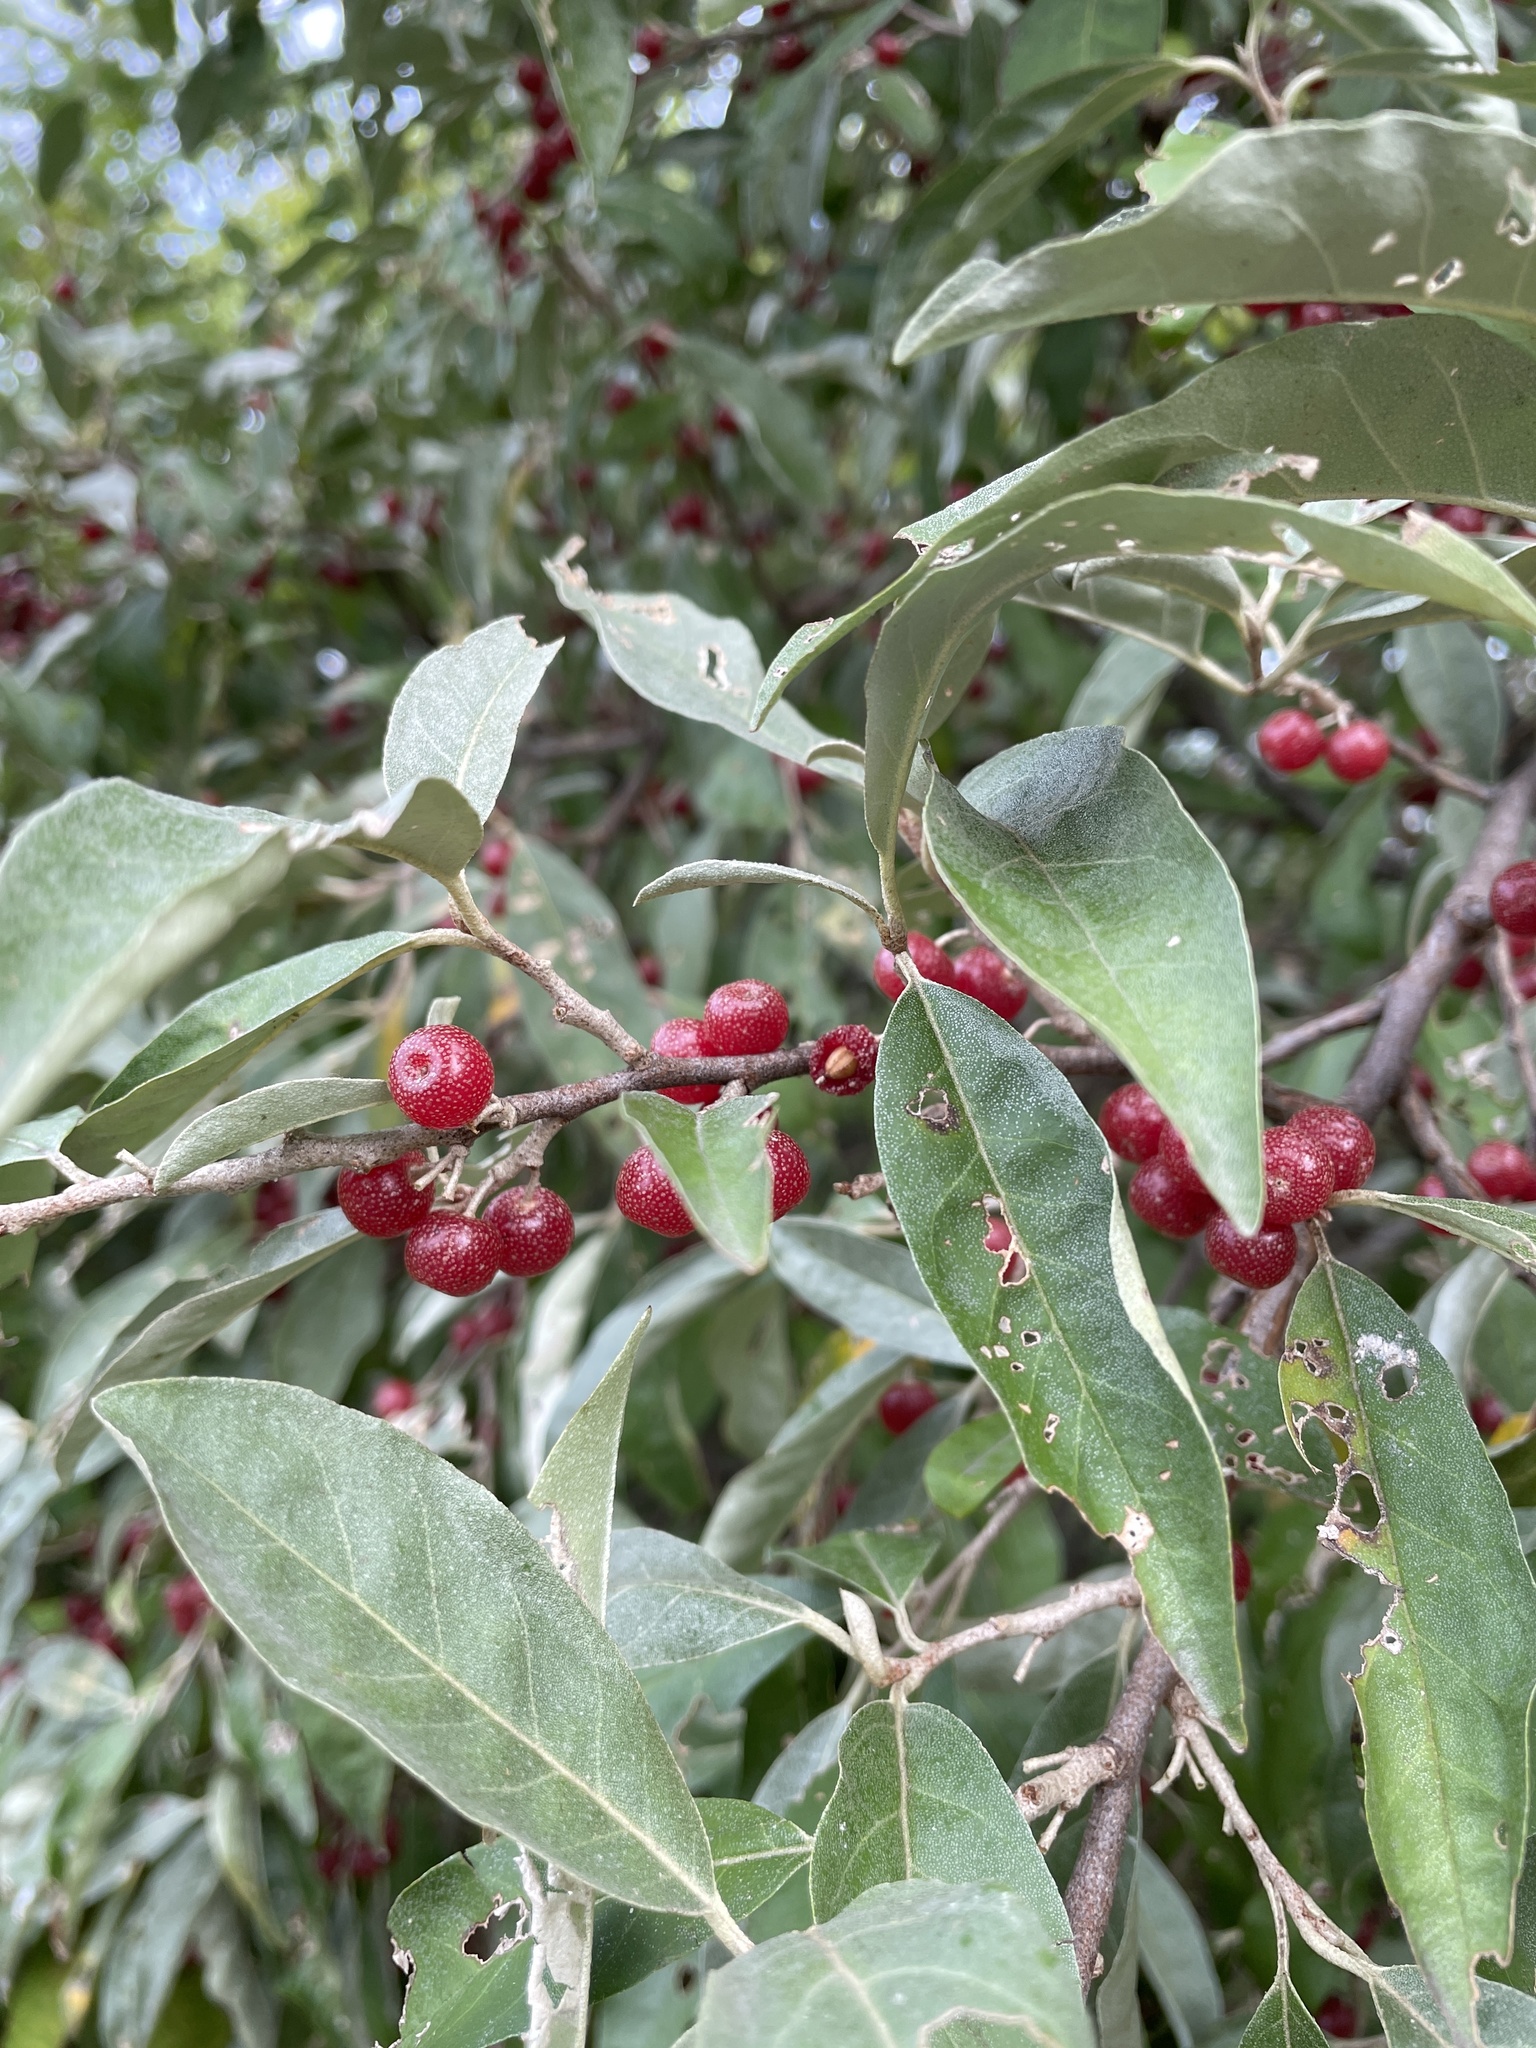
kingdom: Plantae
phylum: Tracheophyta
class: Magnoliopsida
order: Rosales
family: Elaeagnaceae
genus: Elaeagnus
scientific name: Elaeagnus umbellata
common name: Autumn olive
